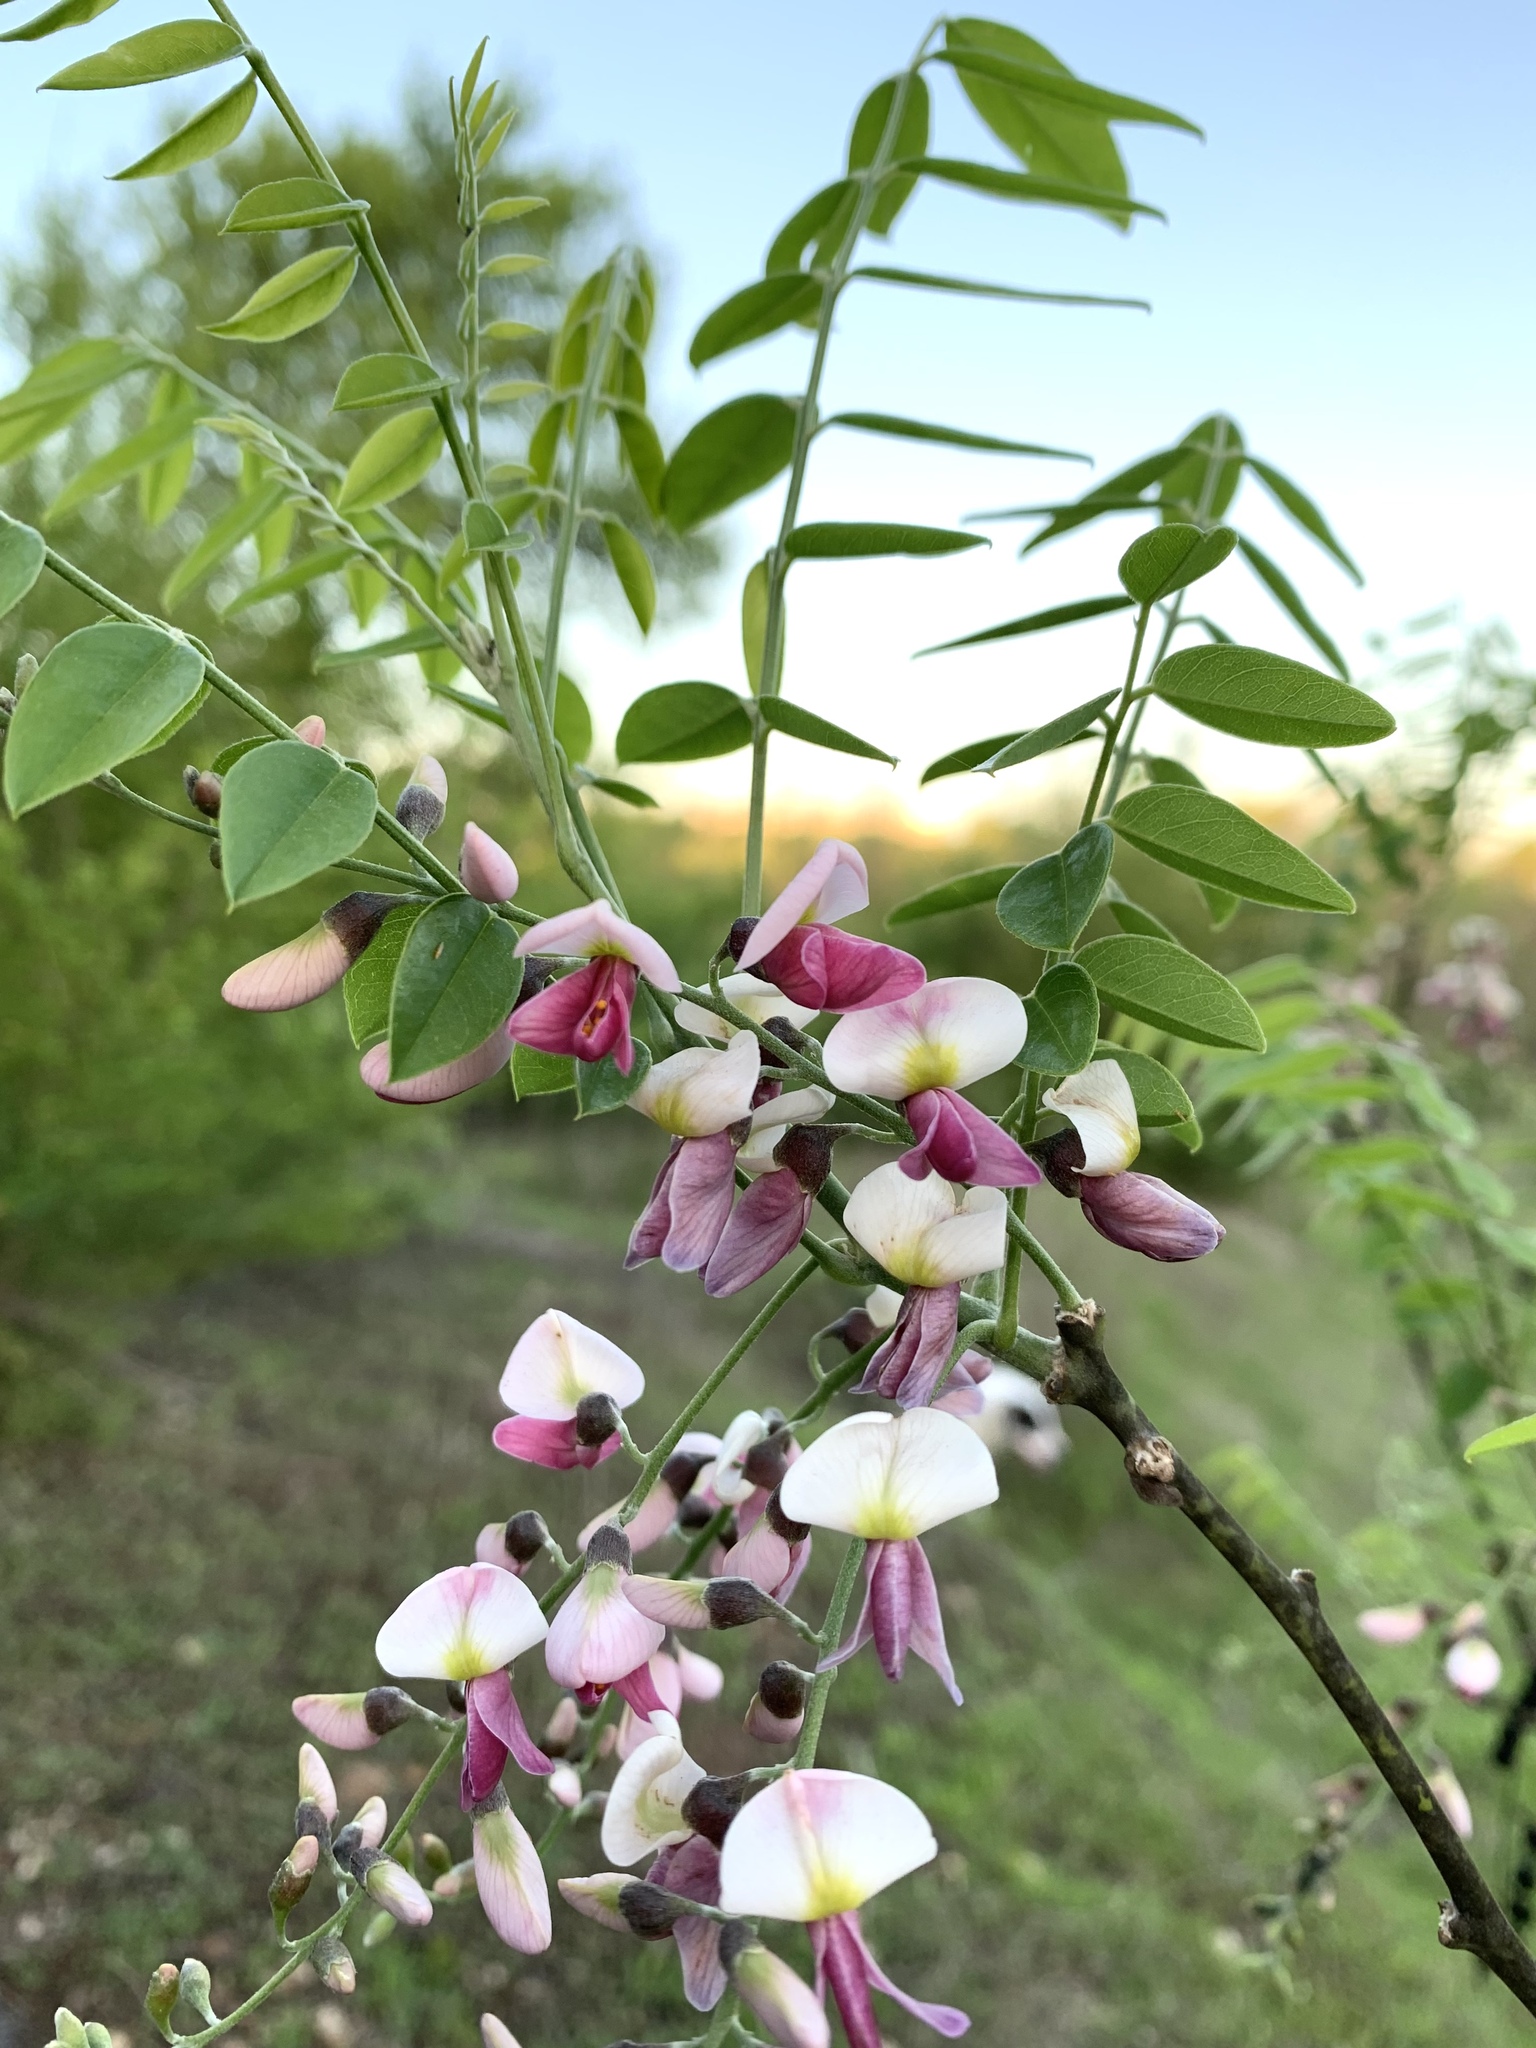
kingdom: Plantae
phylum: Tracheophyta
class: Magnoliopsida
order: Fabales
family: Fabaceae
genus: Styphnolobium
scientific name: Styphnolobium affine
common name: Texas sophora
